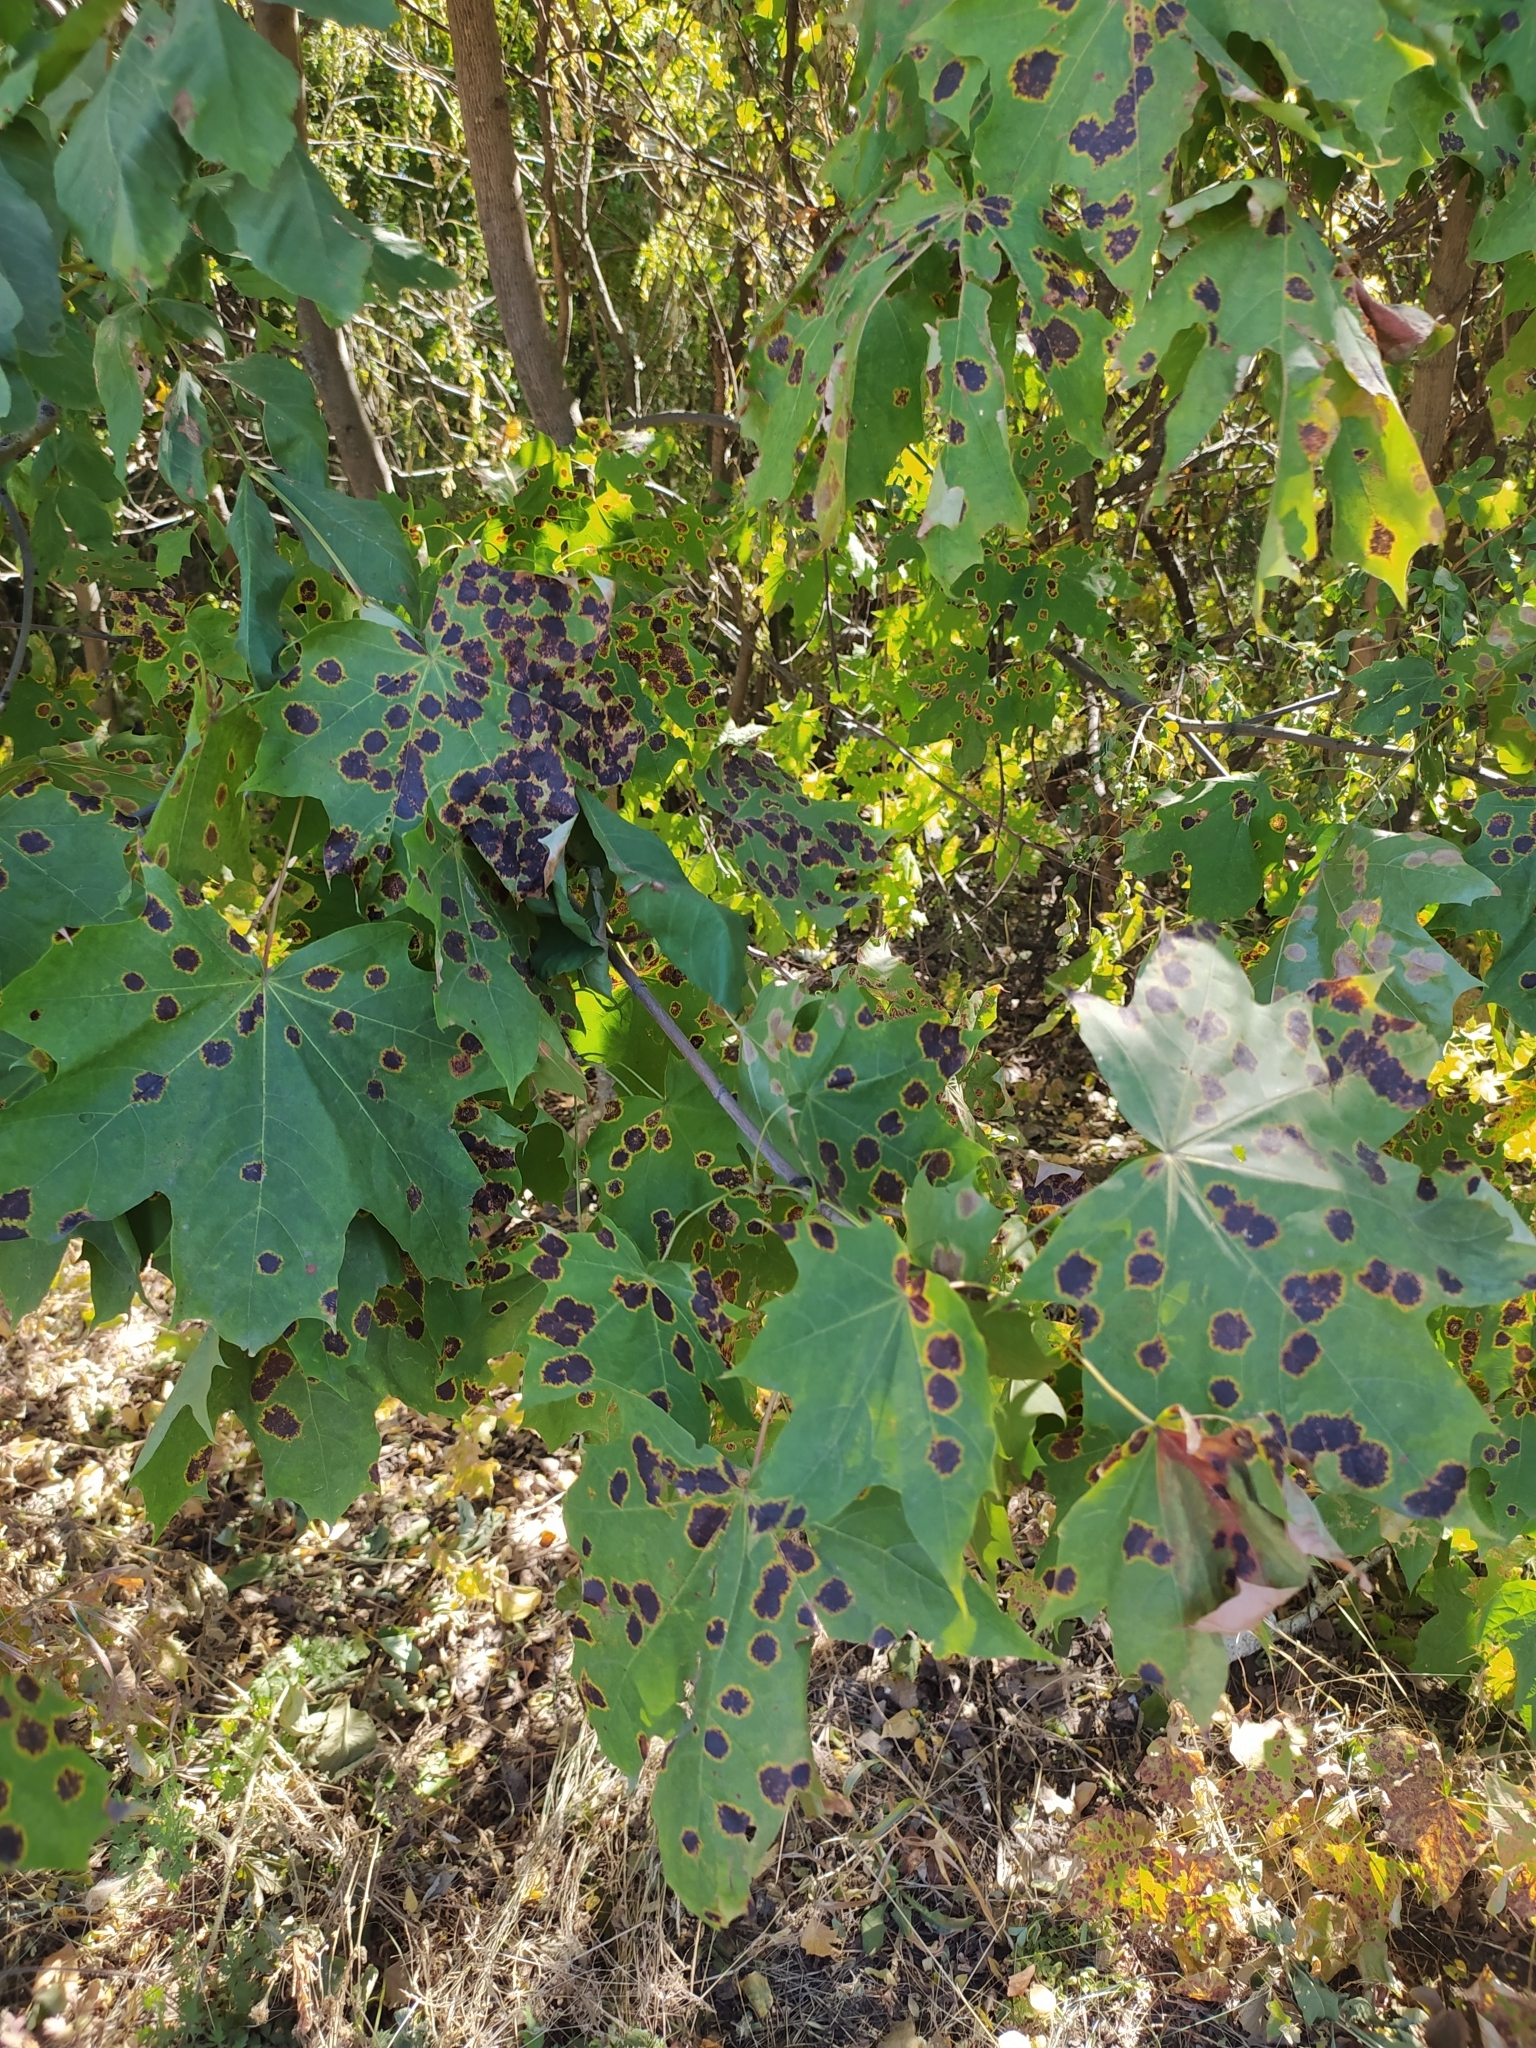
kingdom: Fungi
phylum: Ascomycota
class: Leotiomycetes
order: Rhytismatales
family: Rhytismataceae
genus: Rhytisma
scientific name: Rhytisma acerinum
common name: European tar spot
